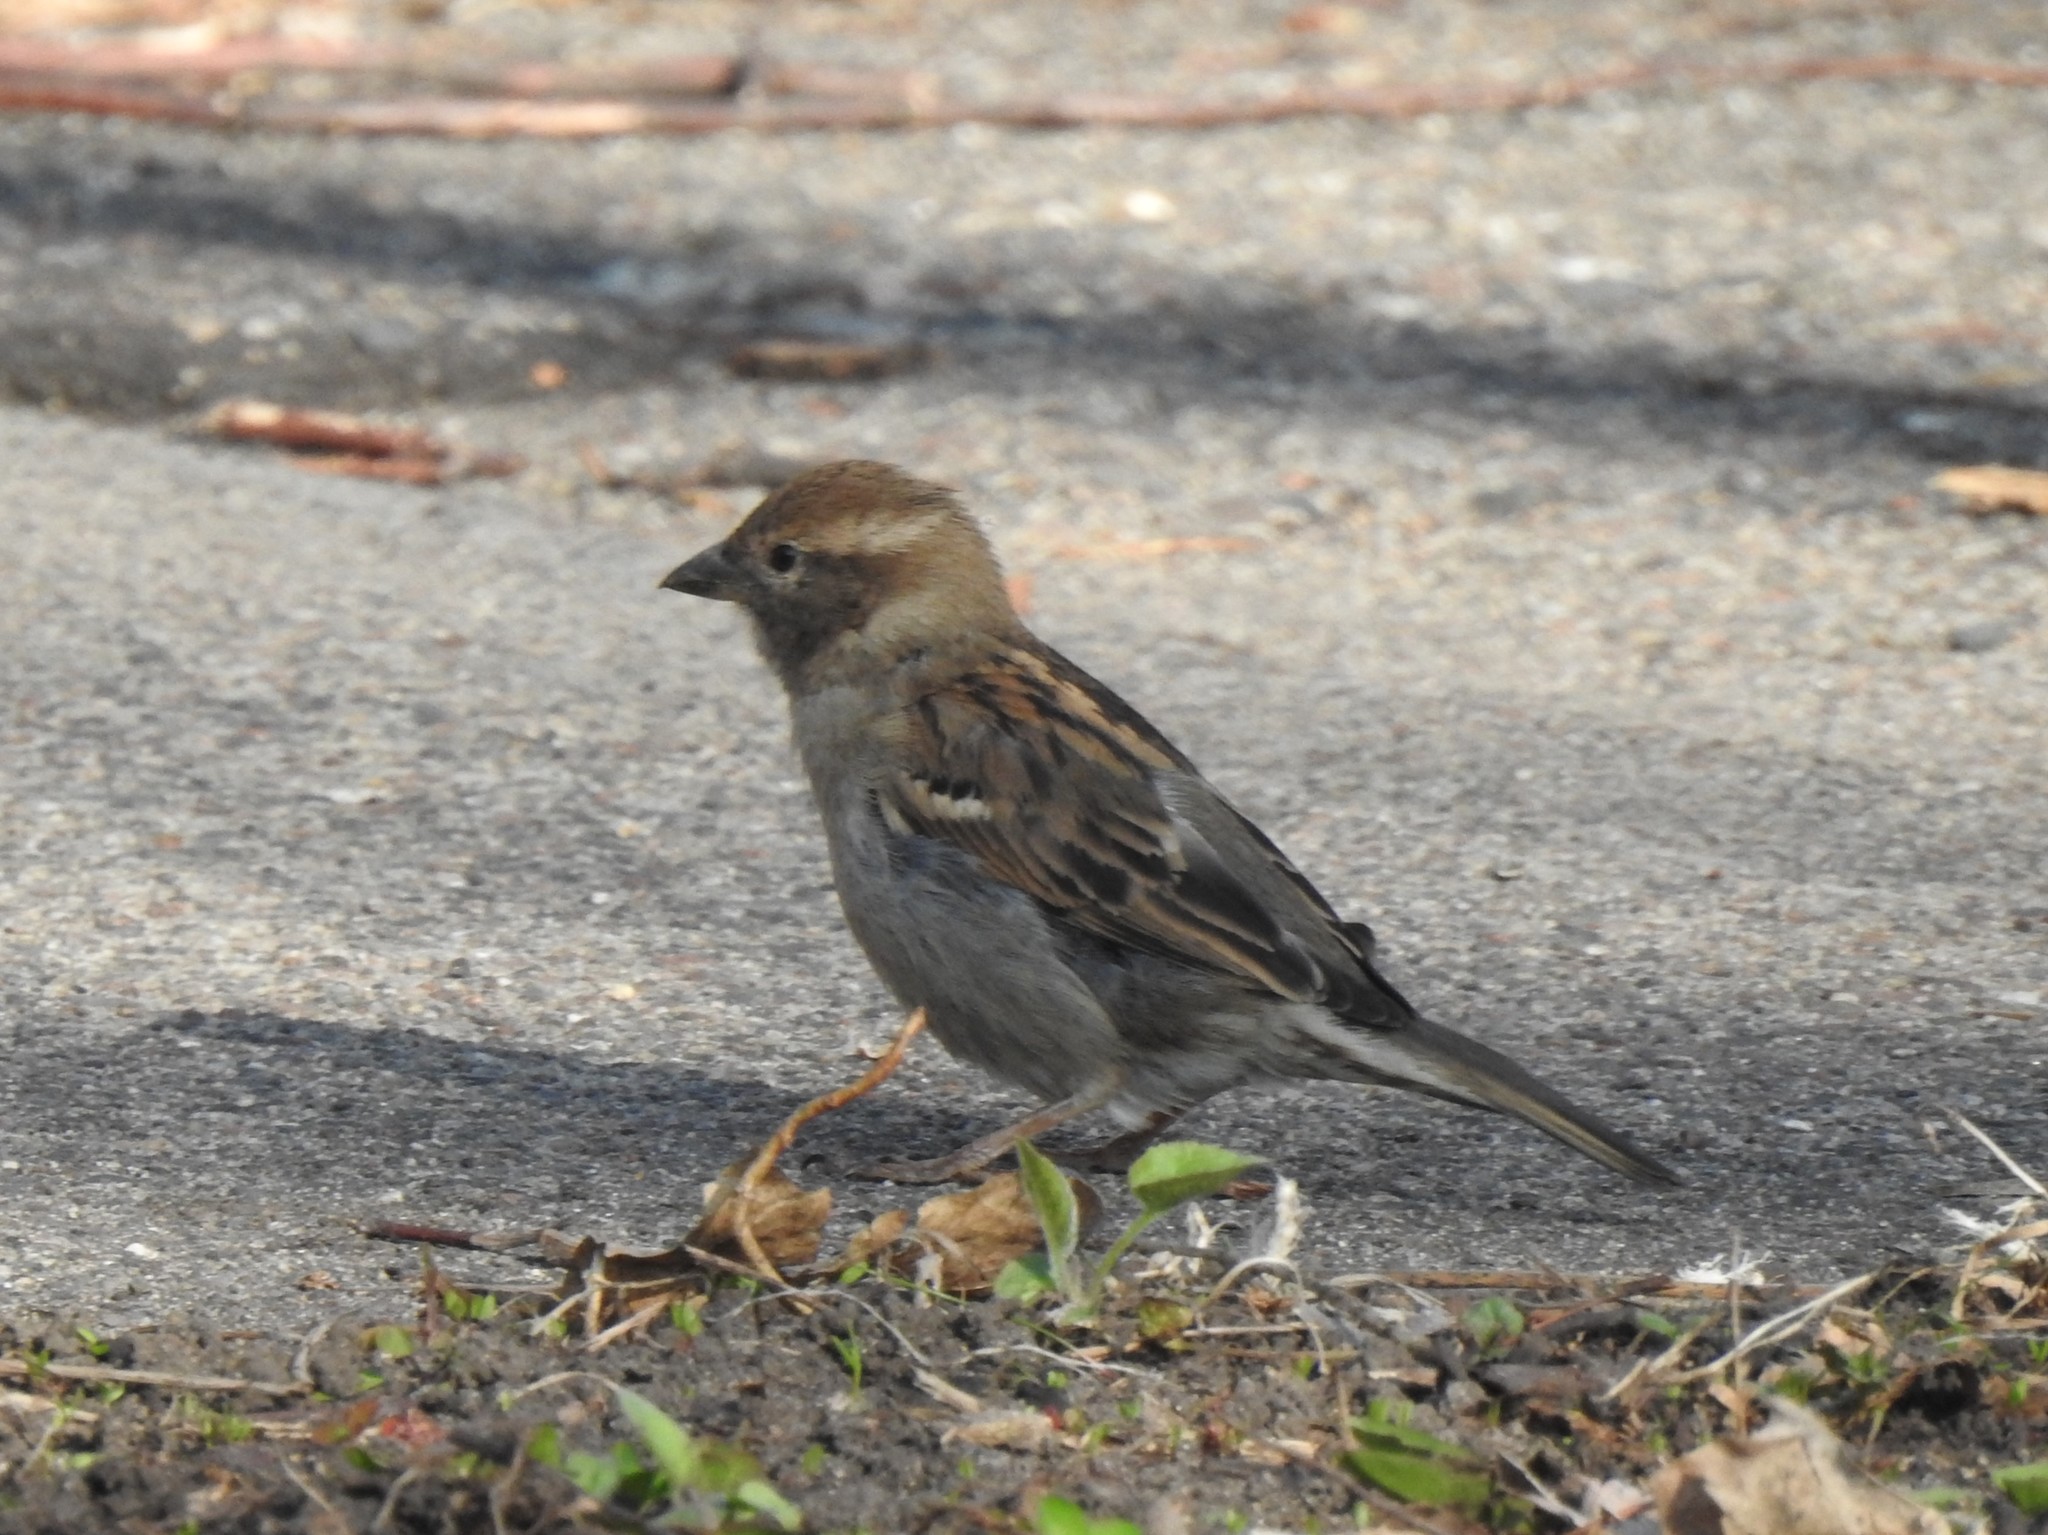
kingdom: Animalia
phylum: Chordata
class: Aves
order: Passeriformes
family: Passeridae
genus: Passer
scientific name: Passer domesticus
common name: House sparrow
